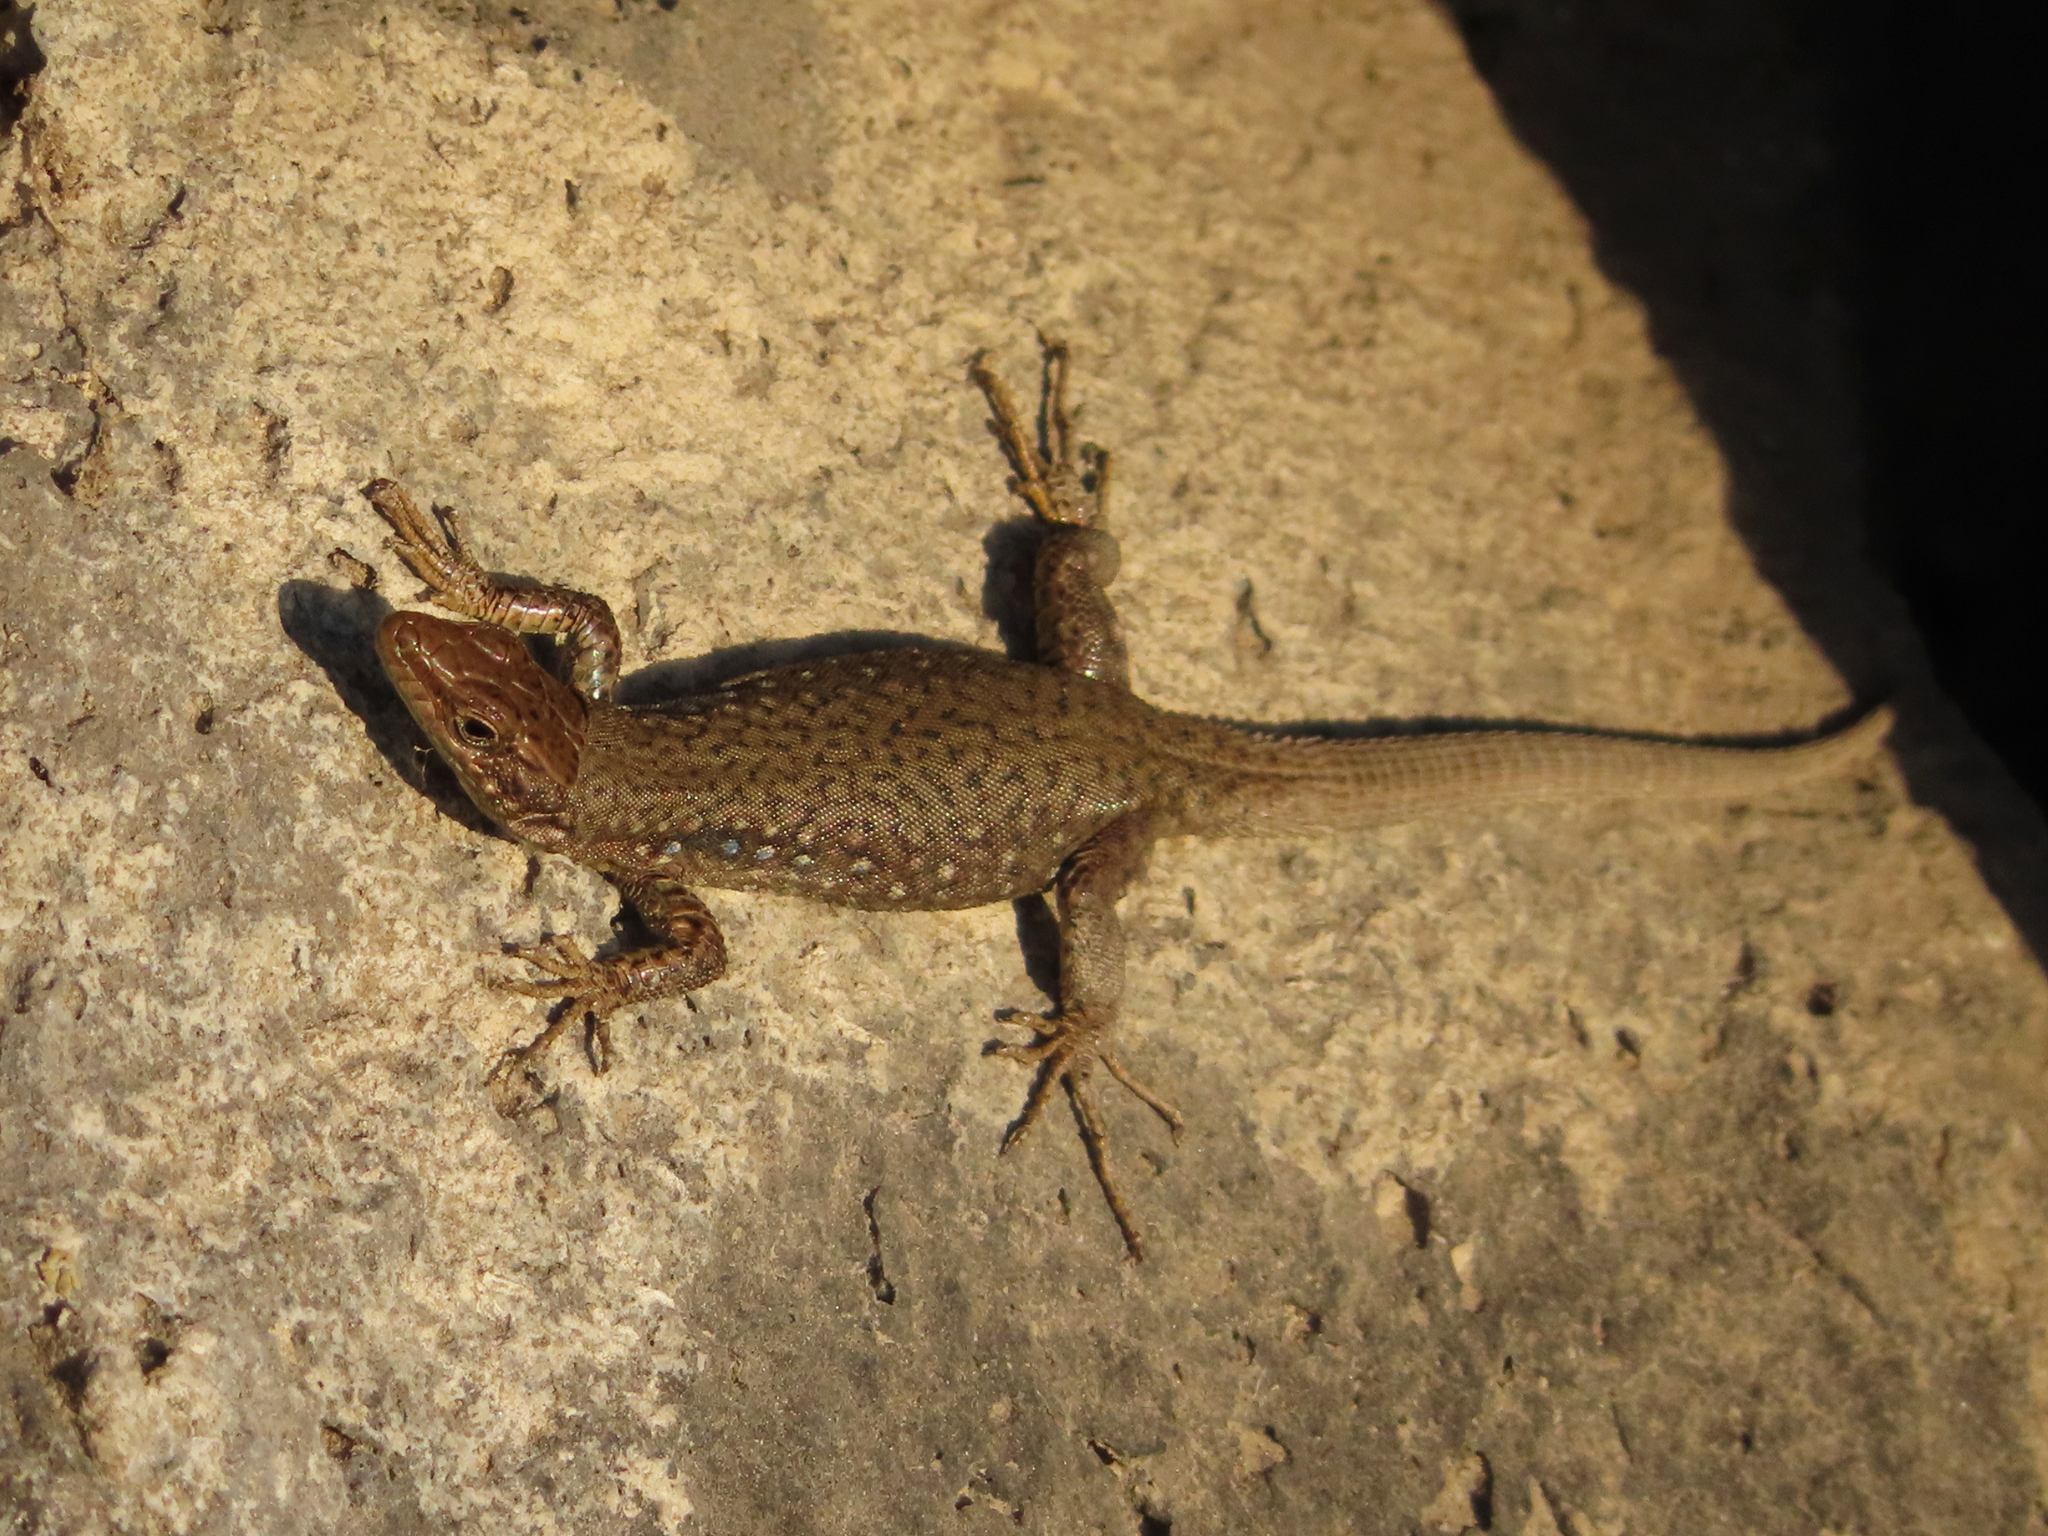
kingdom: Animalia
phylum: Chordata
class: Squamata
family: Lacertidae
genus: Darevskia
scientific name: Darevskia
